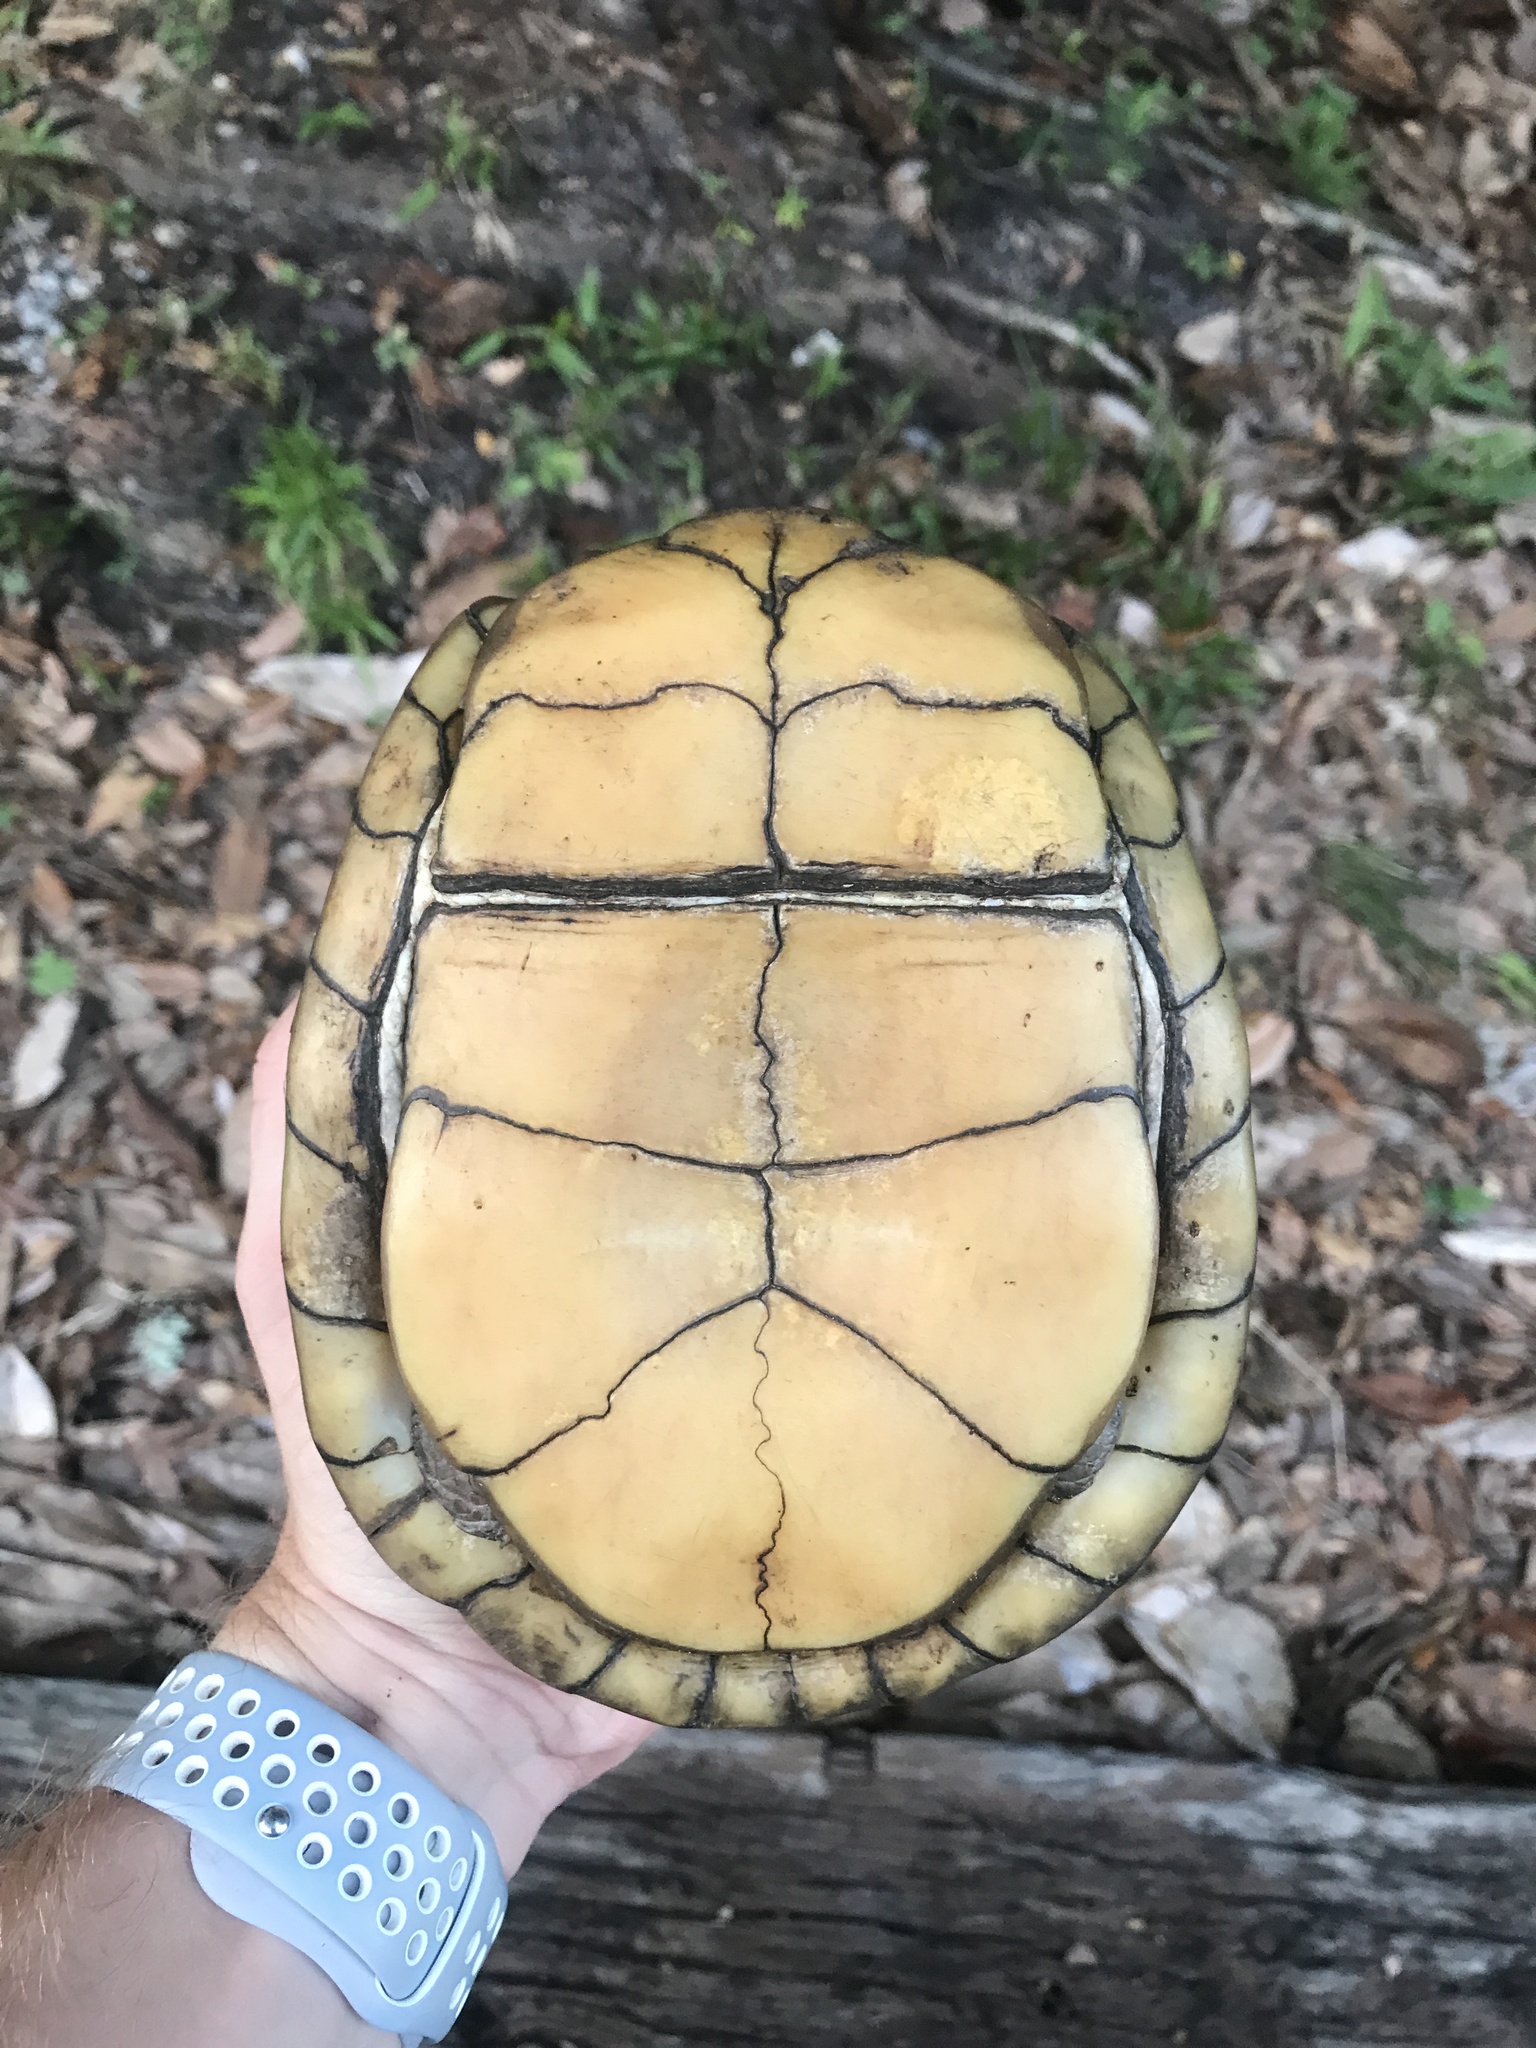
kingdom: Animalia
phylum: Chordata
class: Testudines
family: Emydidae
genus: Terrapene
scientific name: Terrapene carolina
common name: Common box turtle
